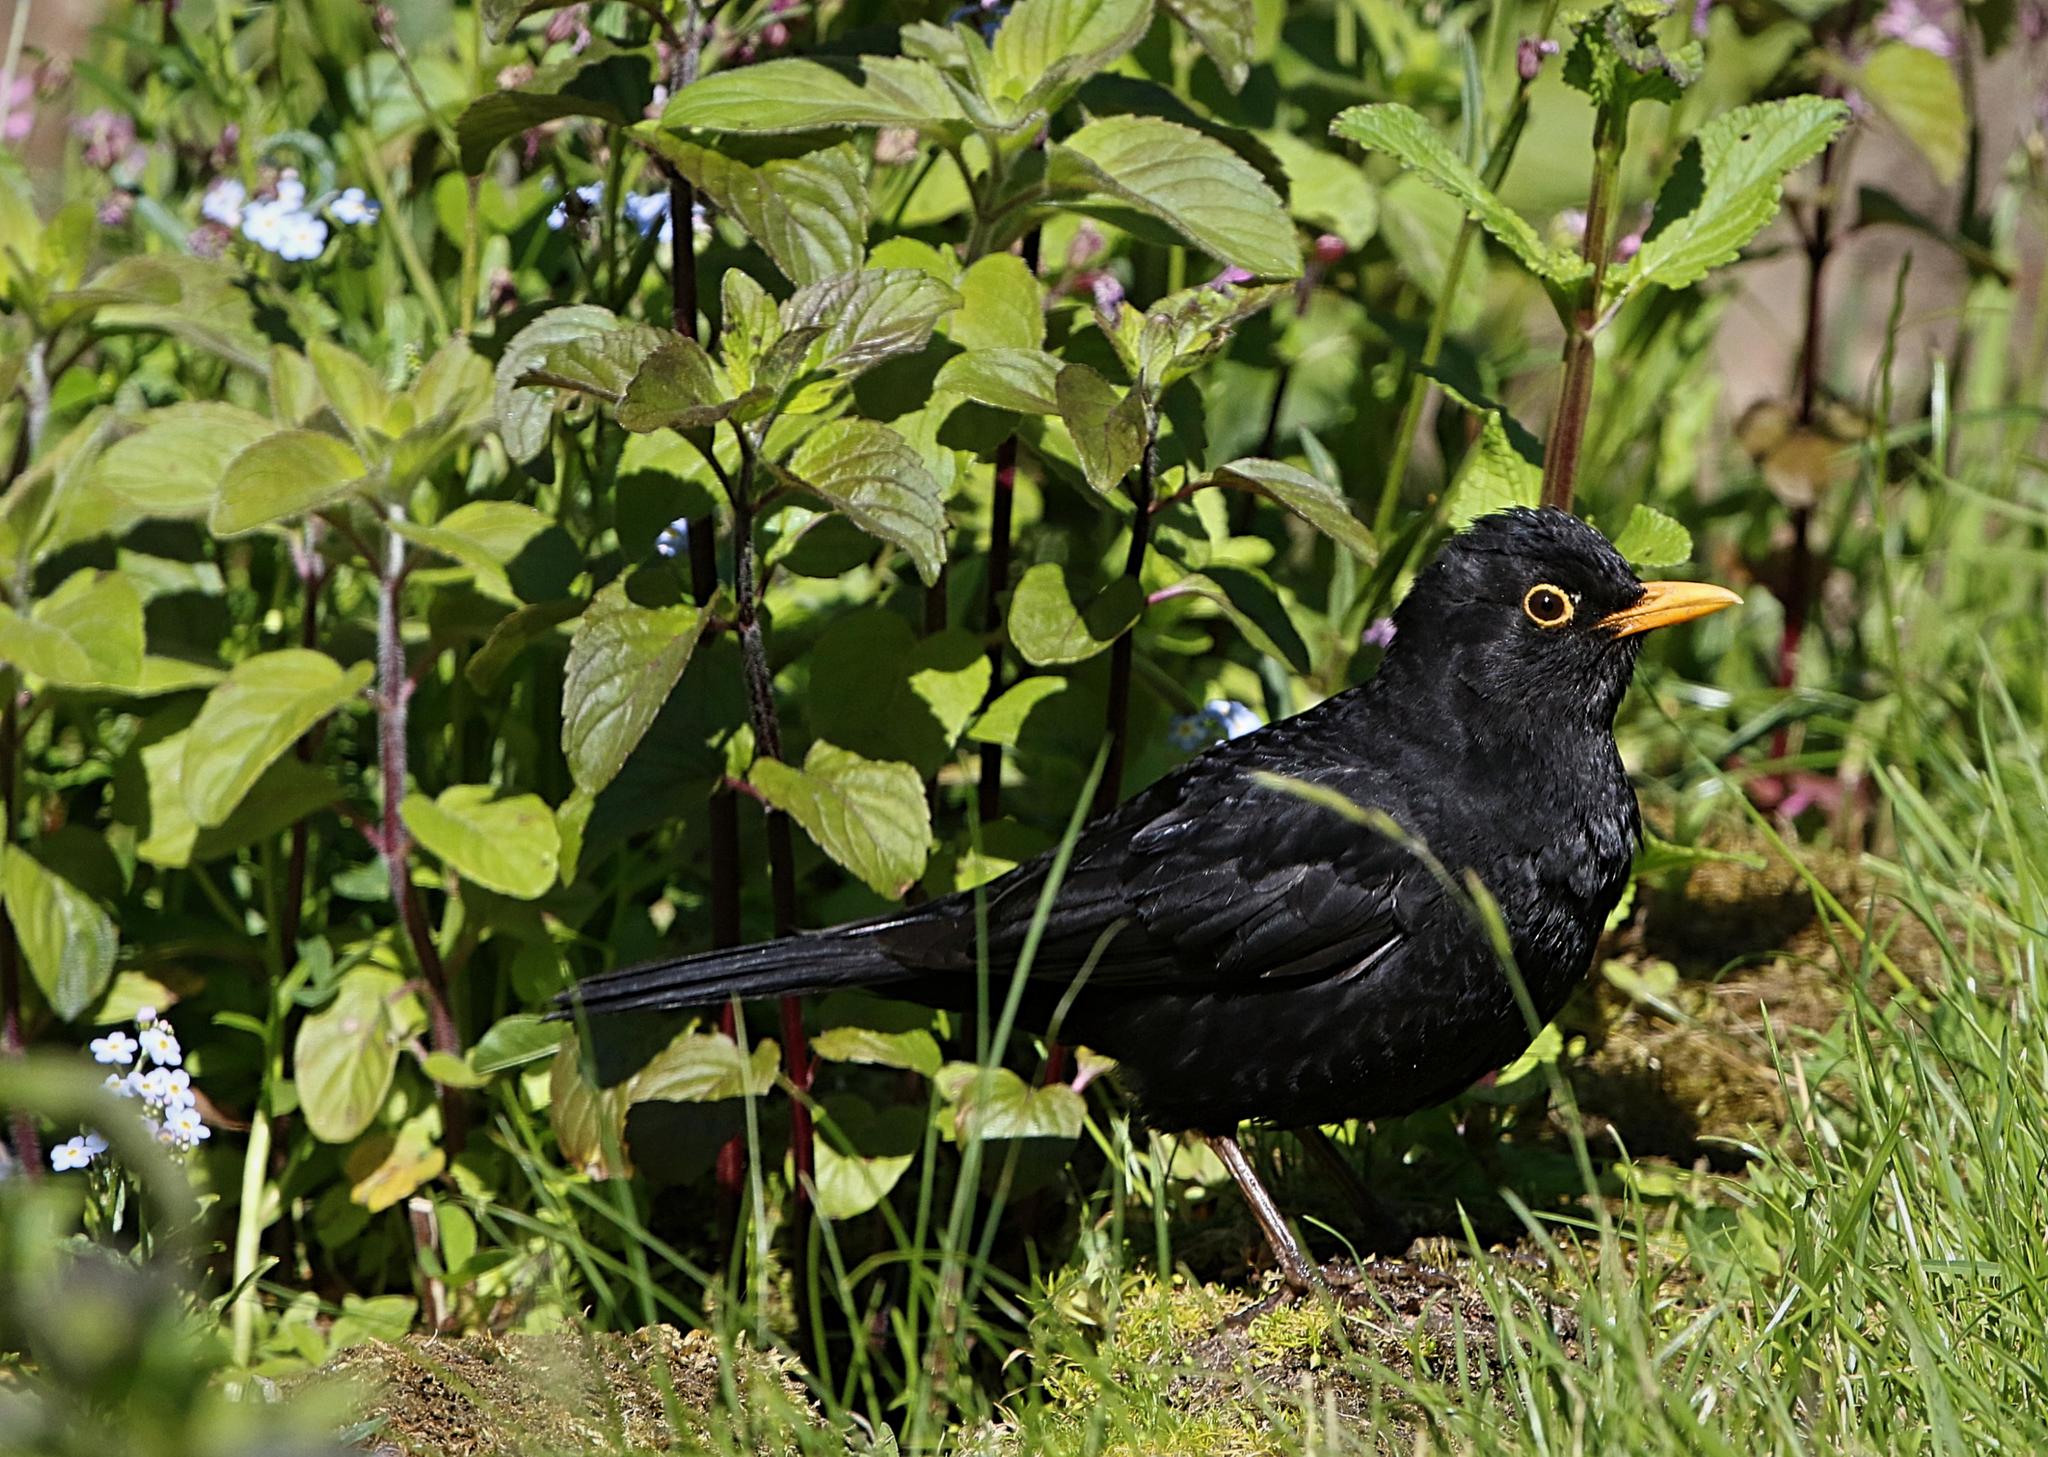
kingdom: Animalia
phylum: Chordata
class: Aves
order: Passeriformes
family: Turdidae
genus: Turdus
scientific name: Turdus merula
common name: Common blackbird
